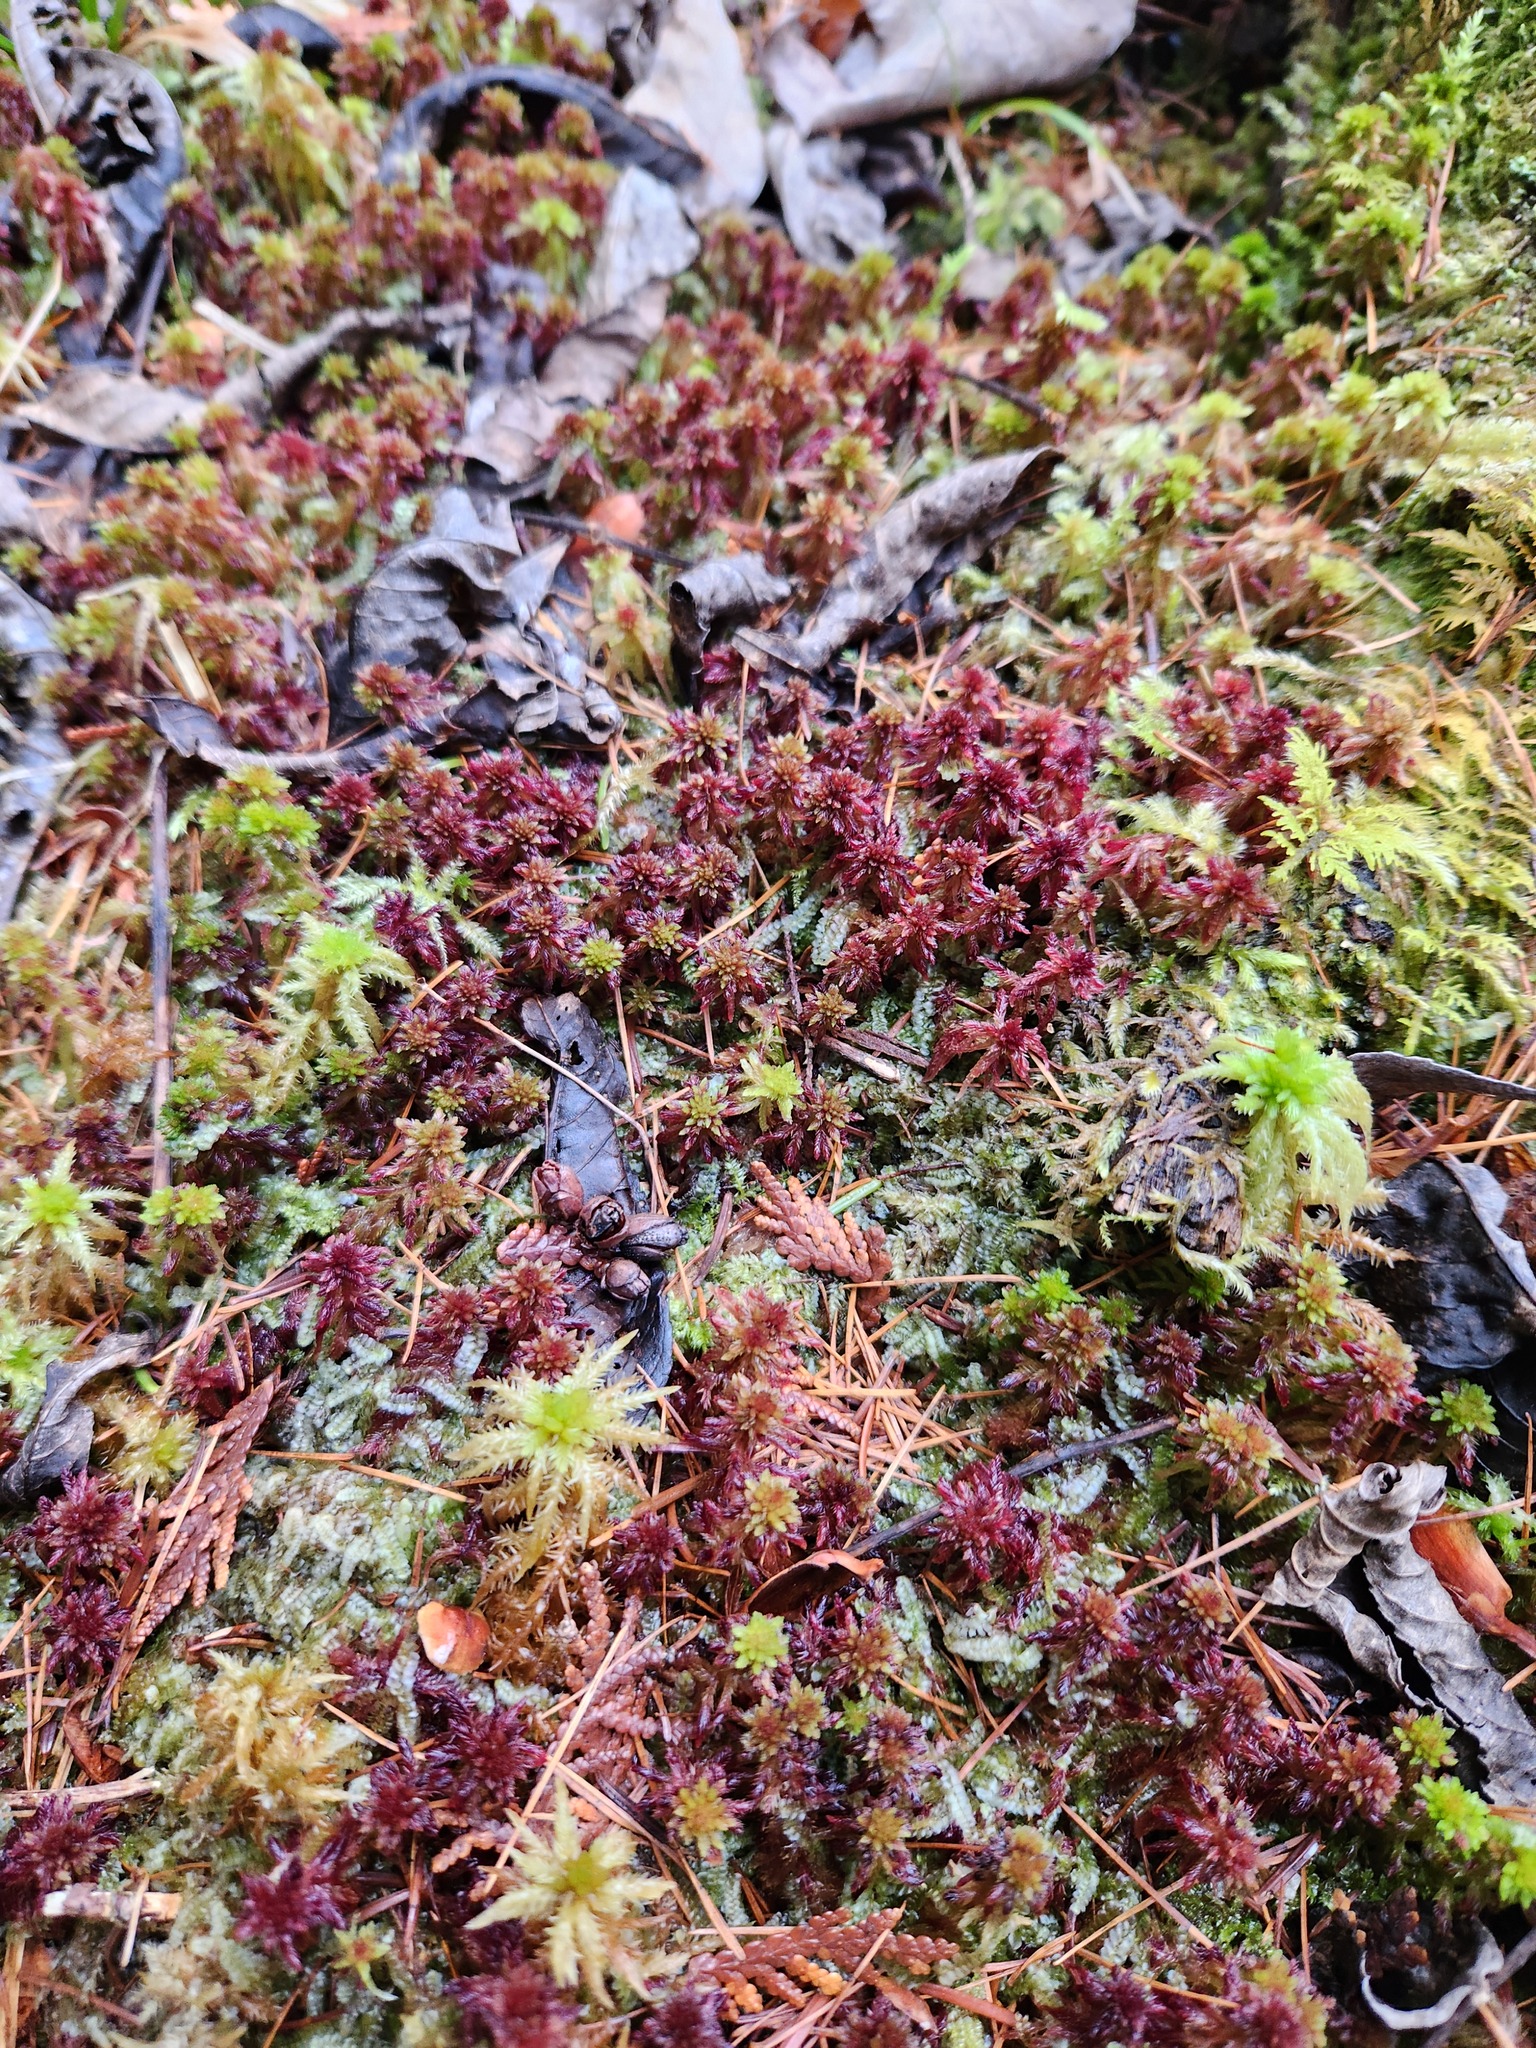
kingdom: Plantae
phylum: Bryophyta
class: Sphagnopsida
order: Sphagnales
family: Sphagnaceae
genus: Sphagnum
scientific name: Sphagnum capillifolium
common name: Small red peat moss
